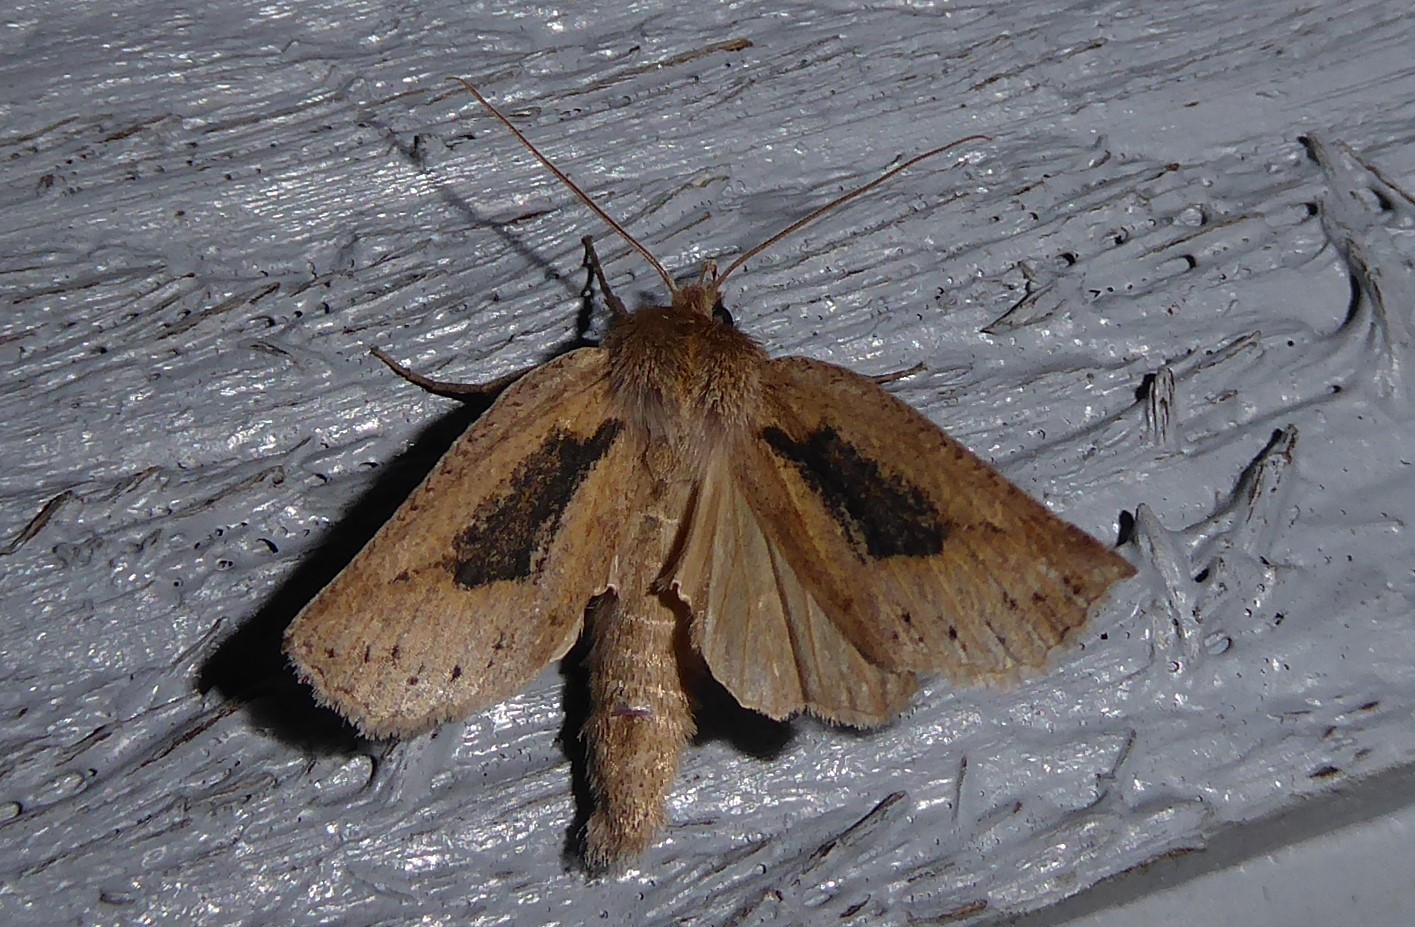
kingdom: Animalia
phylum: Arthropoda
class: Insecta
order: Lepidoptera
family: Geometridae
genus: Declana
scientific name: Declana leptomera
